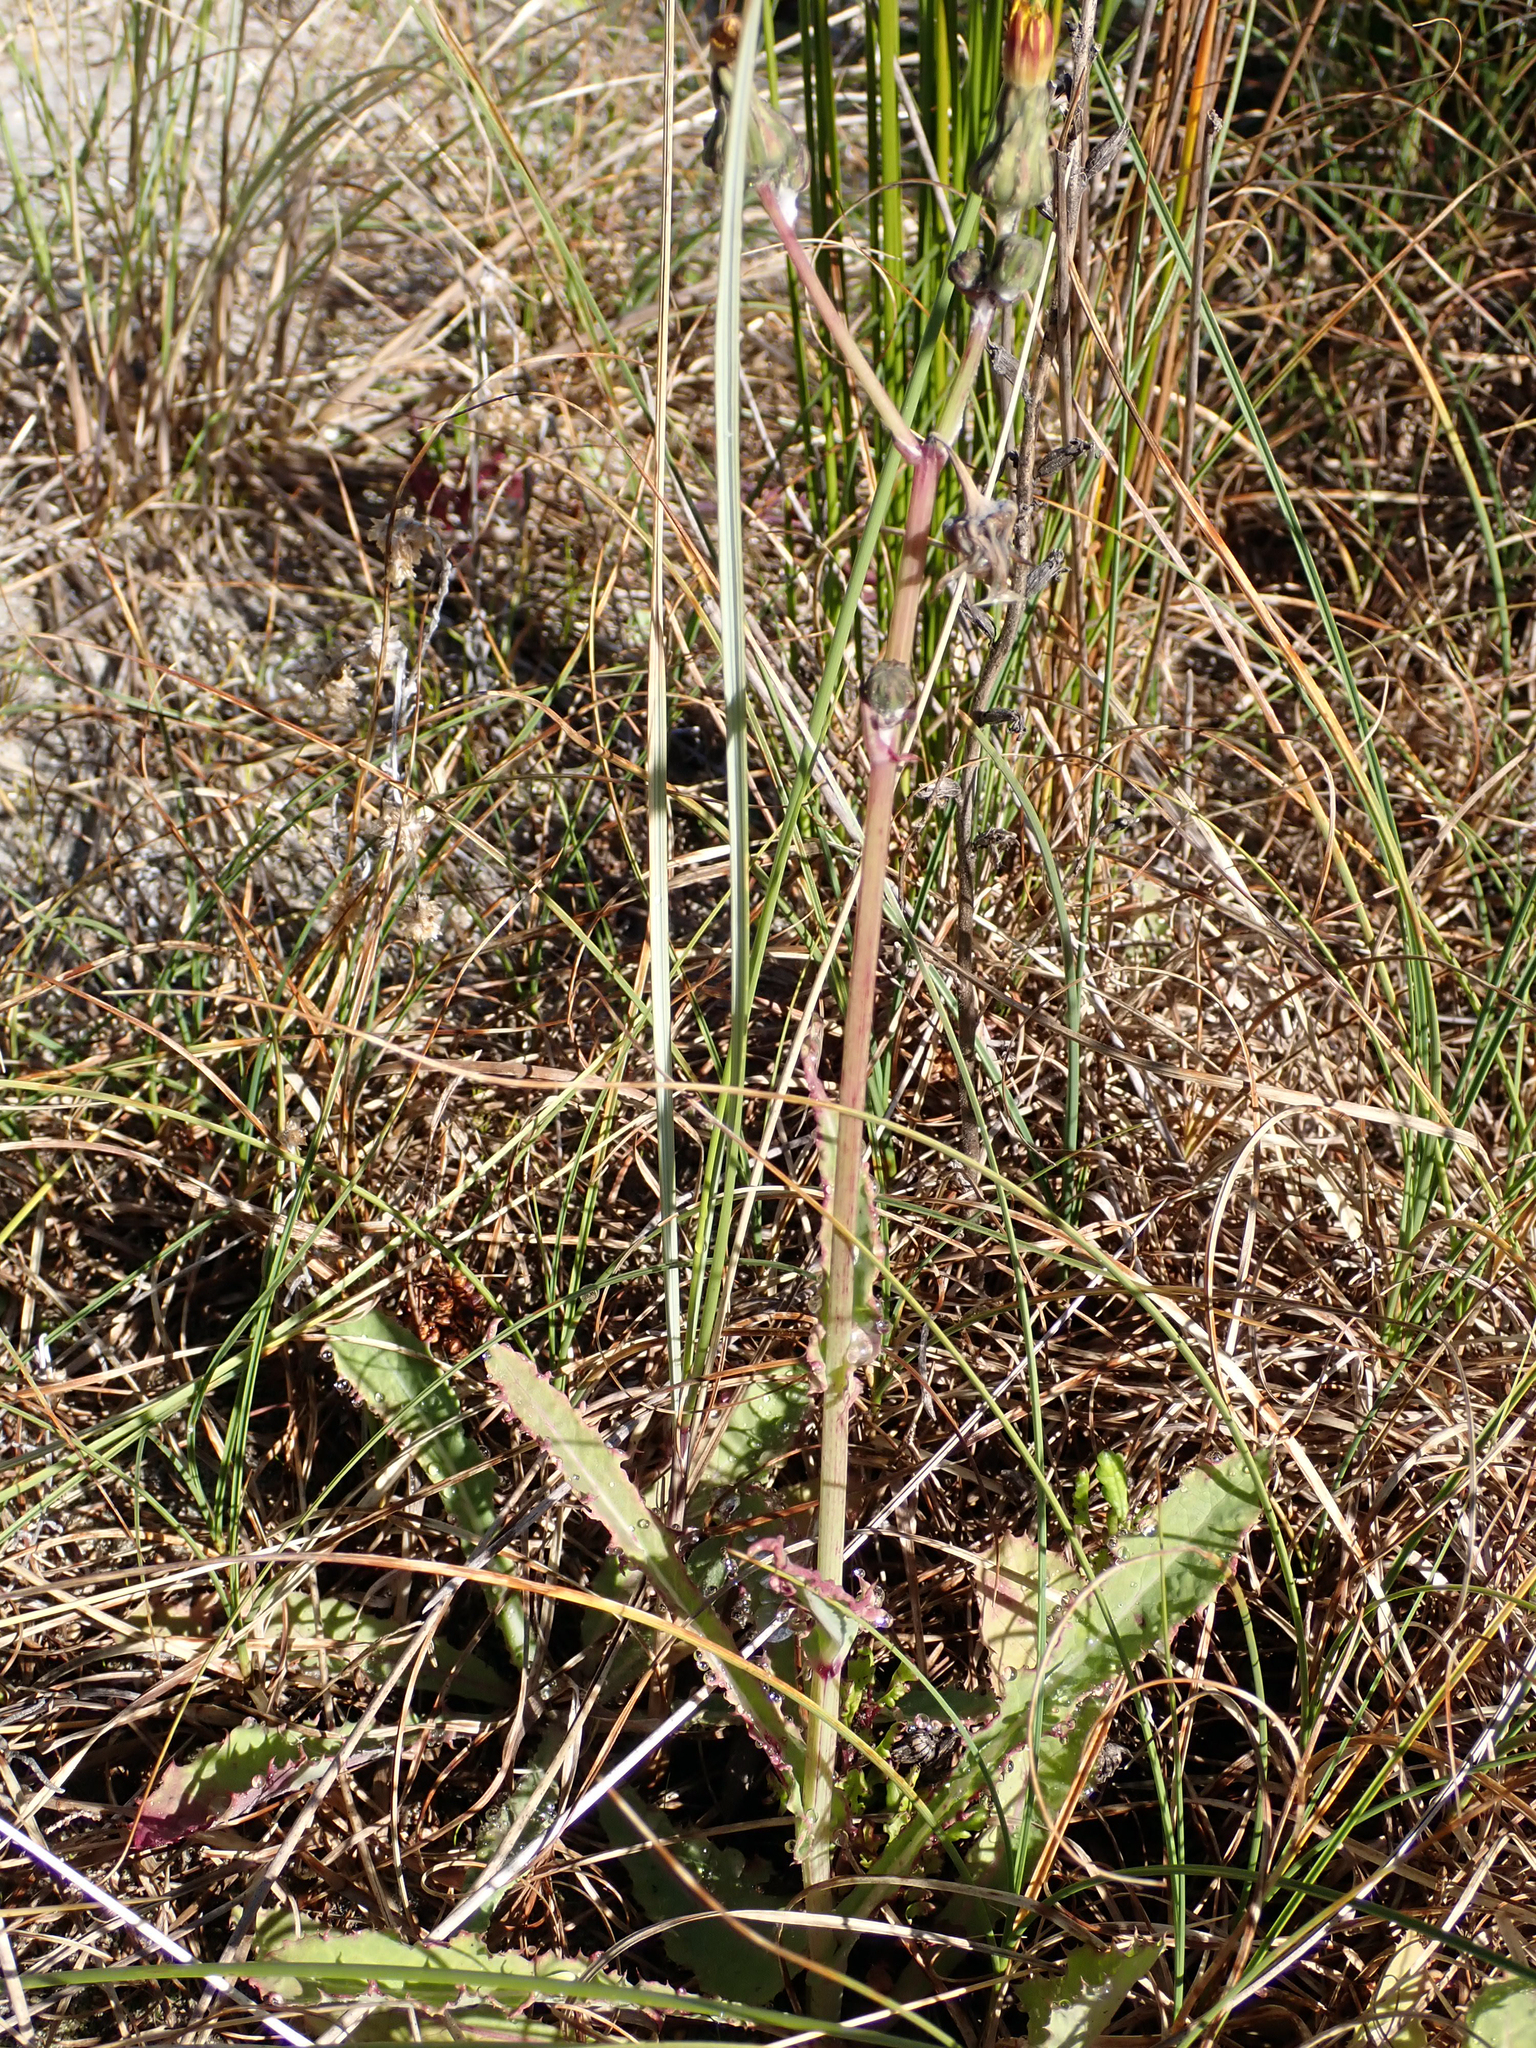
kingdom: Plantae
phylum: Tracheophyta
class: Magnoliopsida
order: Asterales
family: Asteraceae
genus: Sonchus
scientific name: Sonchus kirkii
